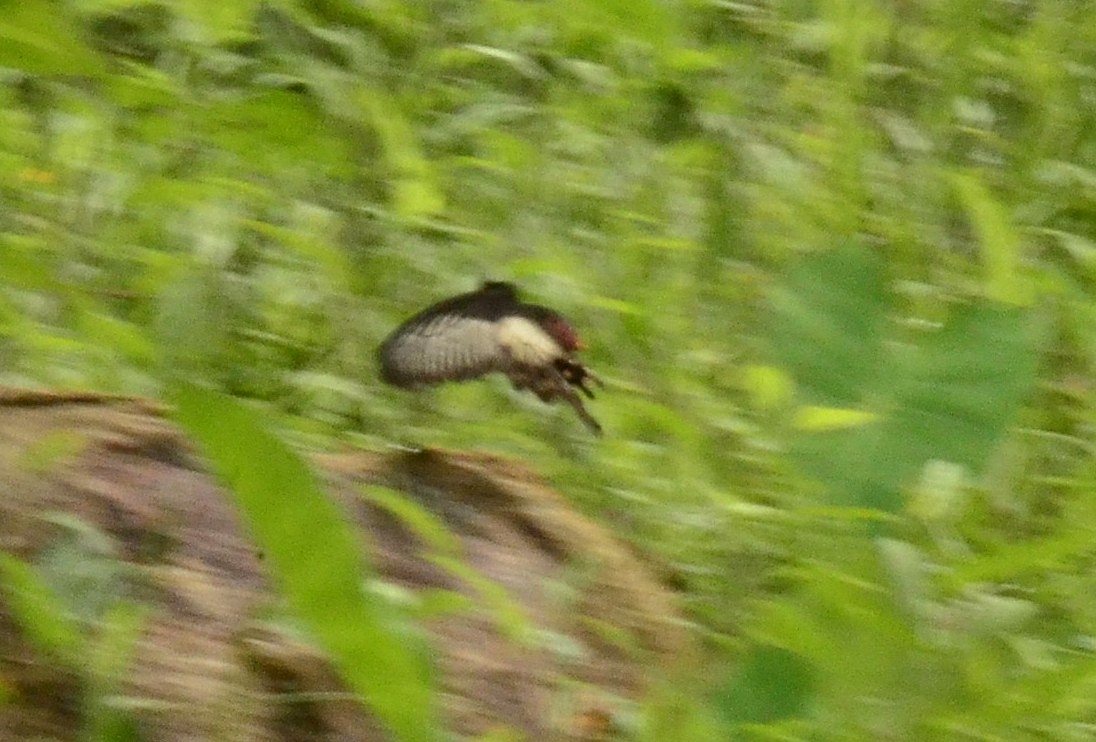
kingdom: Animalia
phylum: Arthropoda
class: Insecta
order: Lepidoptera
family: Papilionidae
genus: Pachliopta
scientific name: Pachliopta pandiyana
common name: Malabar rose
